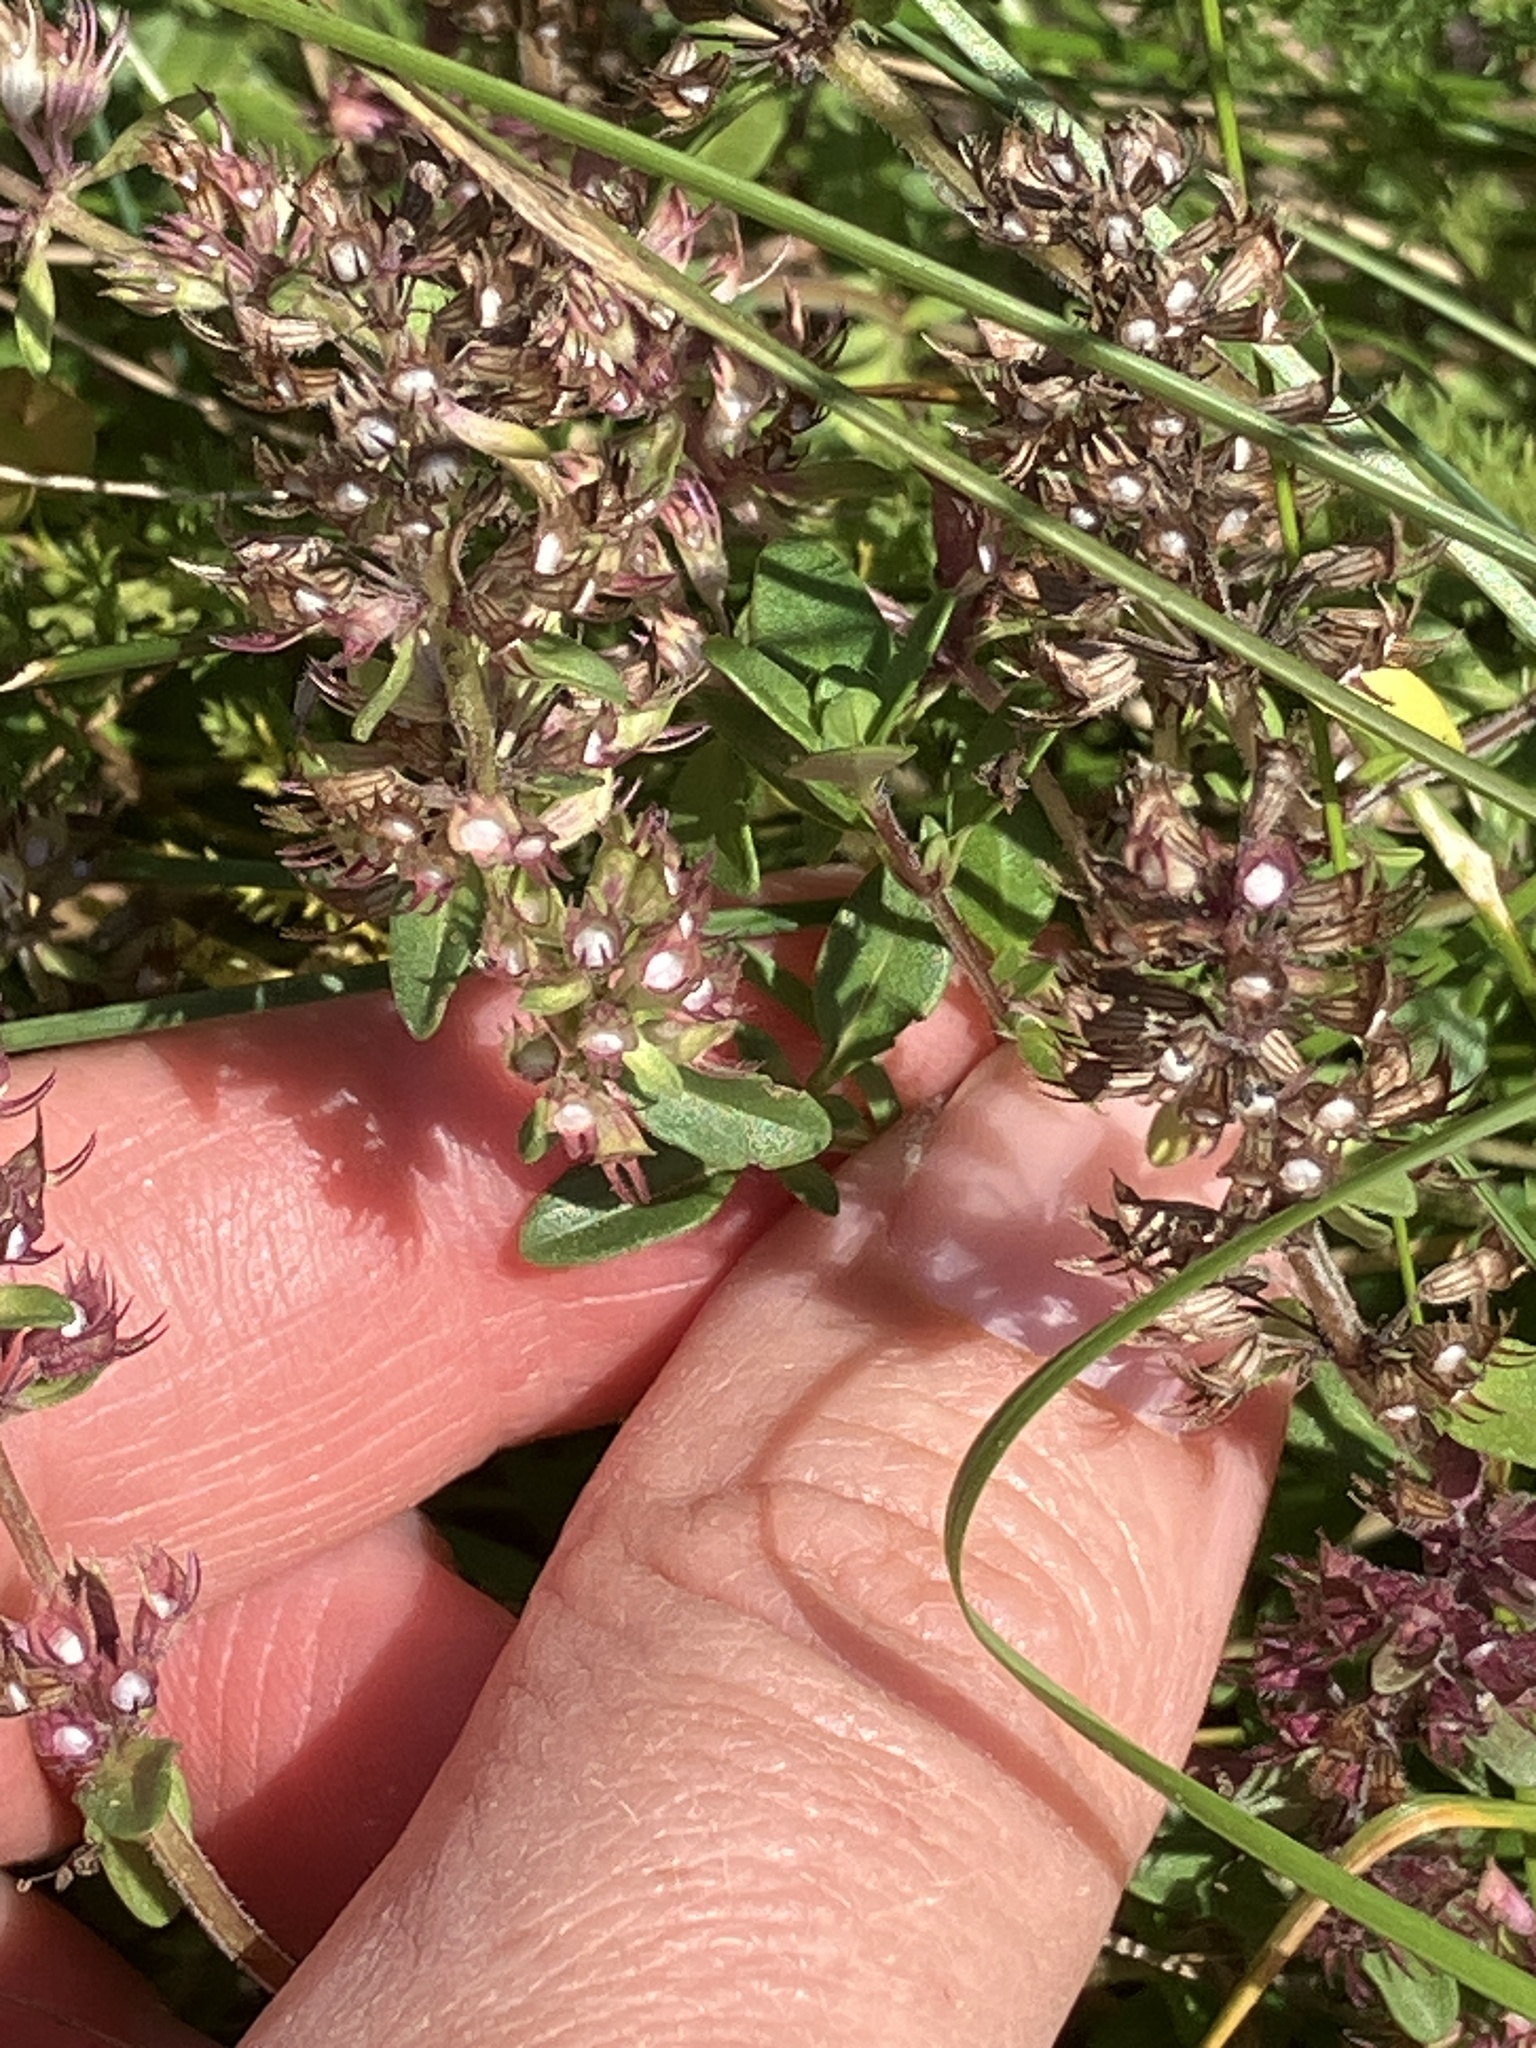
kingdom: Plantae
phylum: Tracheophyta
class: Magnoliopsida
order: Lamiales
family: Lamiaceae
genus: Thymus
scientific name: Thymus pulegioides
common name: Large thyme
